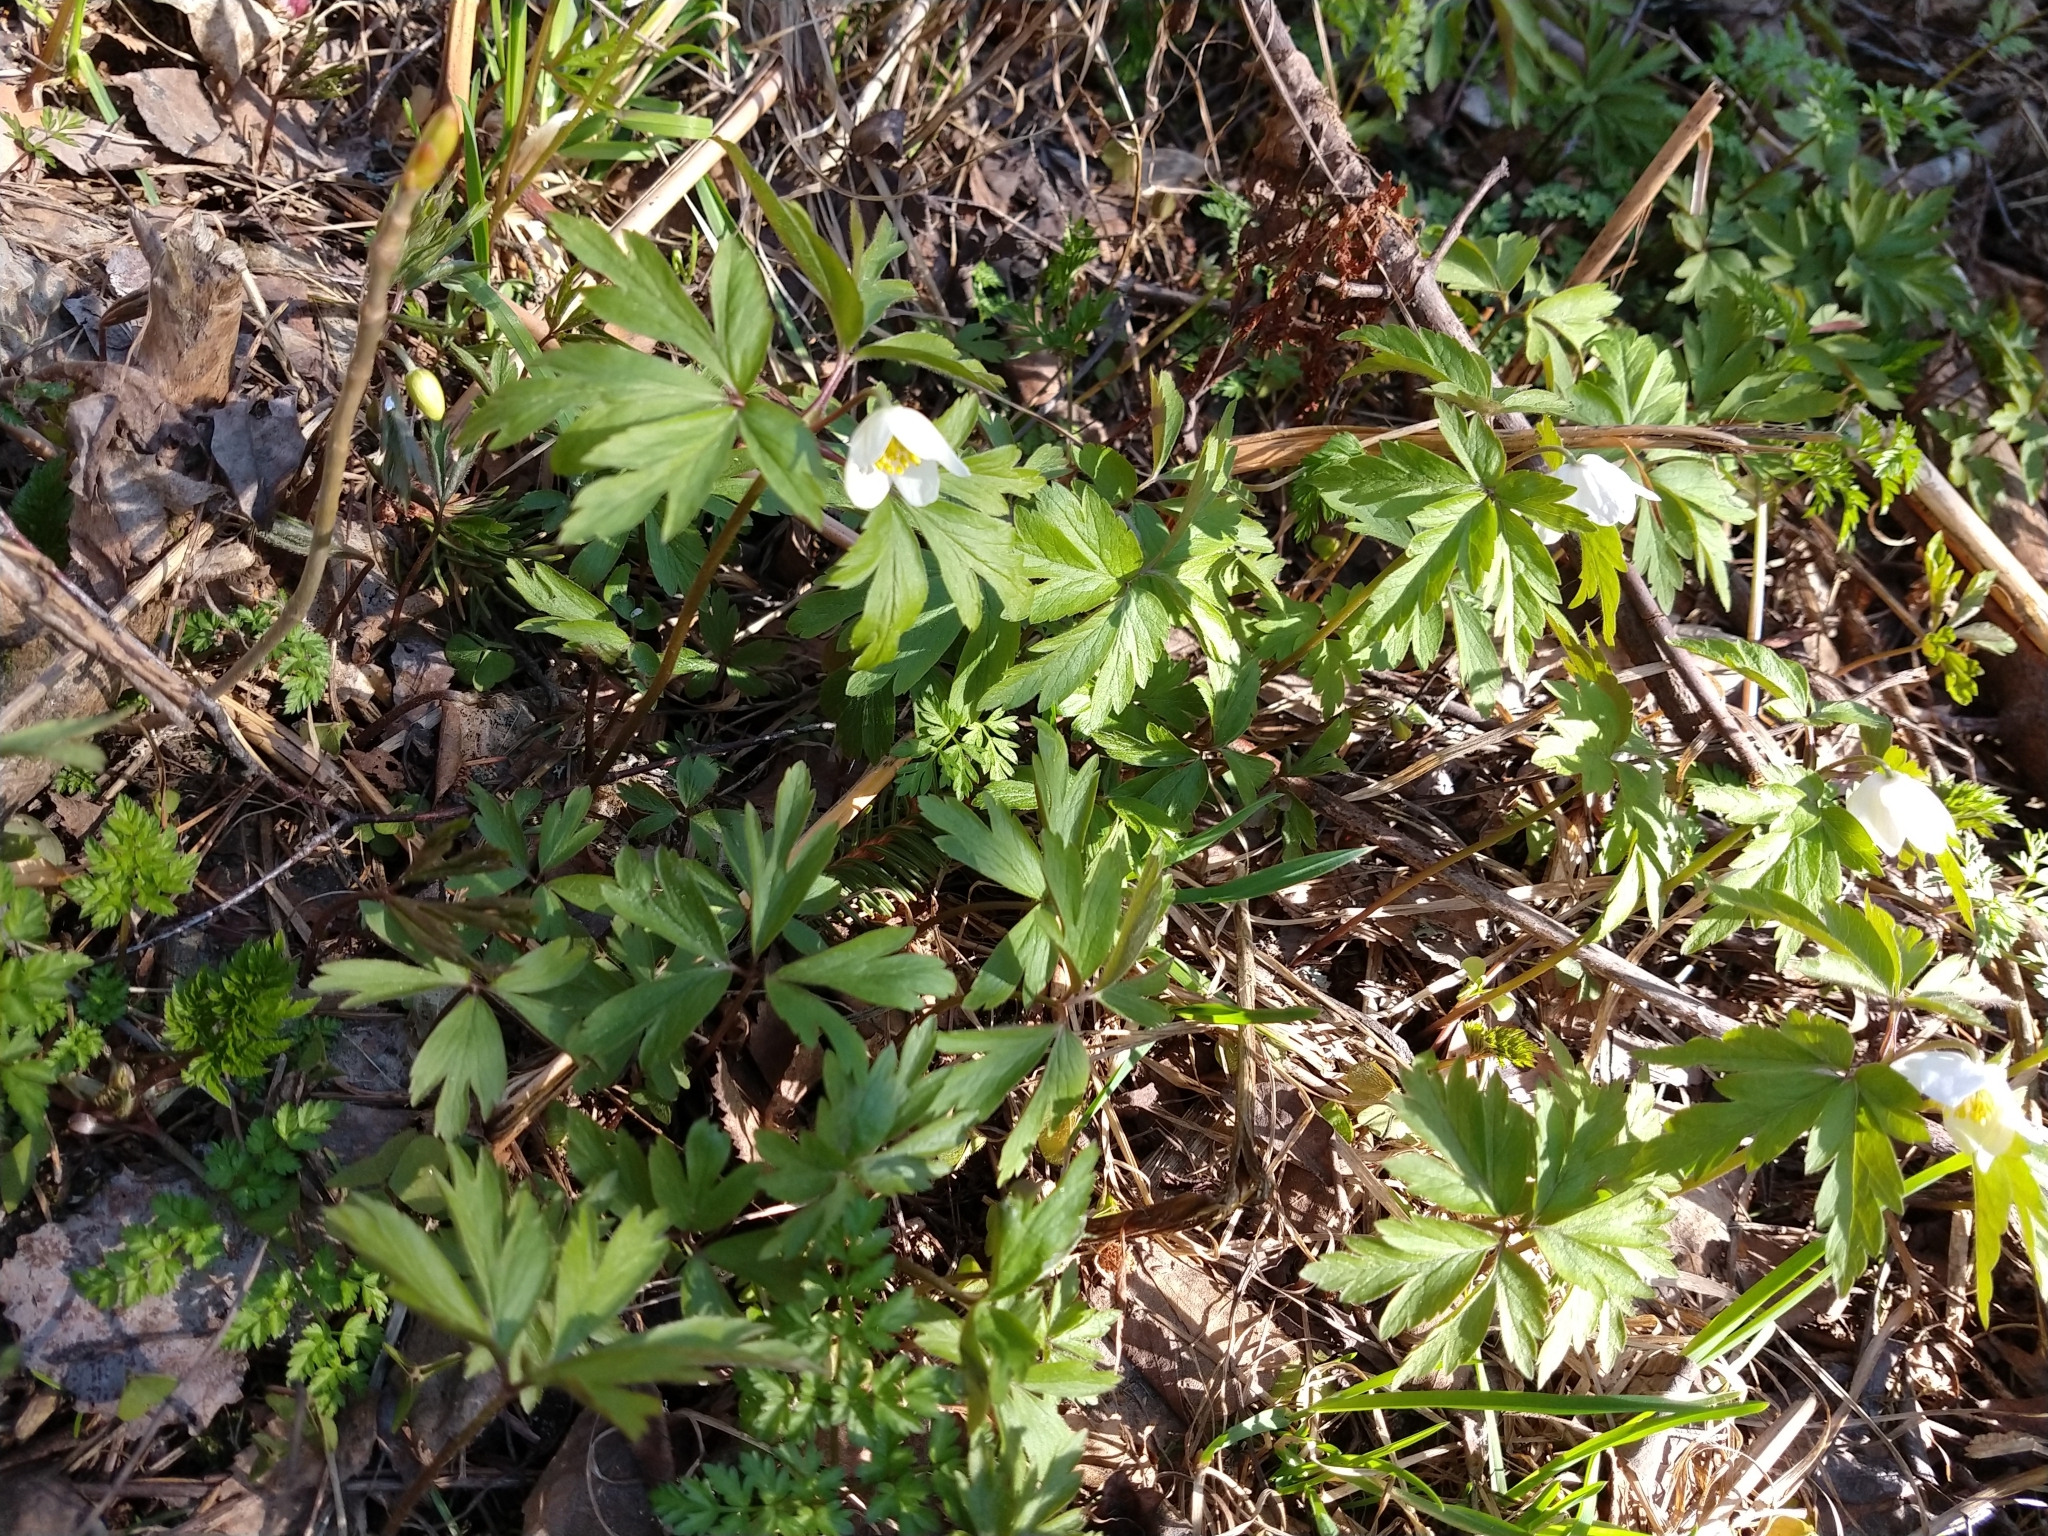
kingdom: Plantae
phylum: Tracheophyta
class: Magnoliopsida
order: Ranunculales
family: Ranunculaceae
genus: Anemone
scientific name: Anemone nemorosa
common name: Wood anemone
